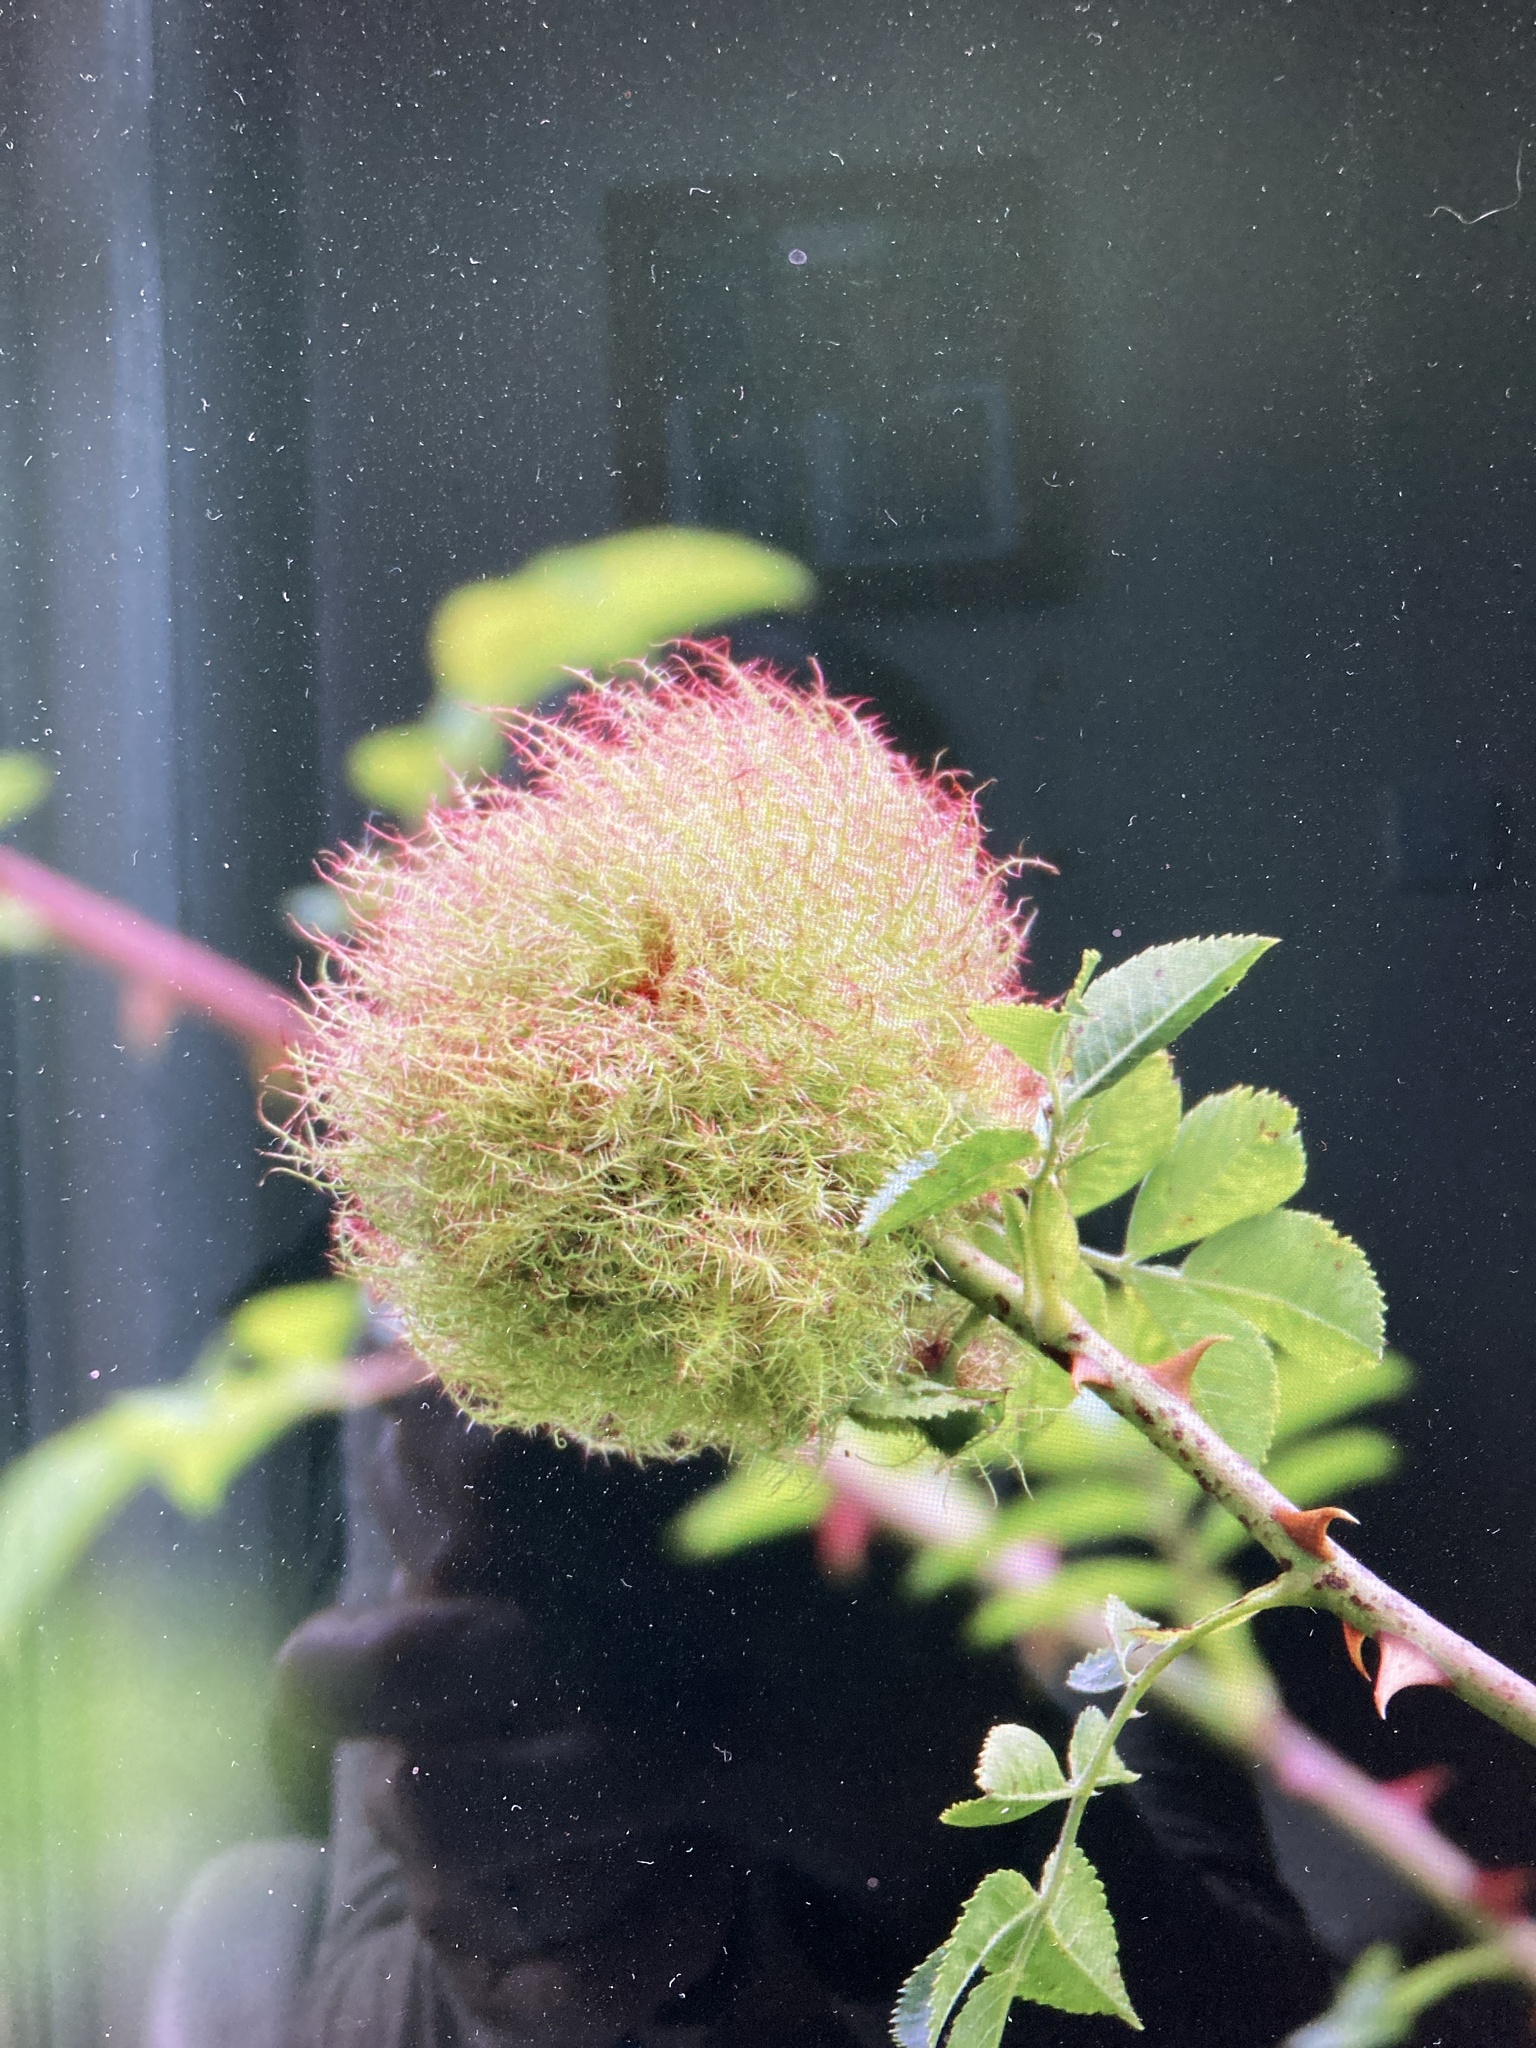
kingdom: Animalia
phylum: Arthropoda
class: Insecta
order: Hymenoptera
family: Cynipidae
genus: Diplolepis
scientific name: Diplolepis rosae
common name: Bedeguar gall
